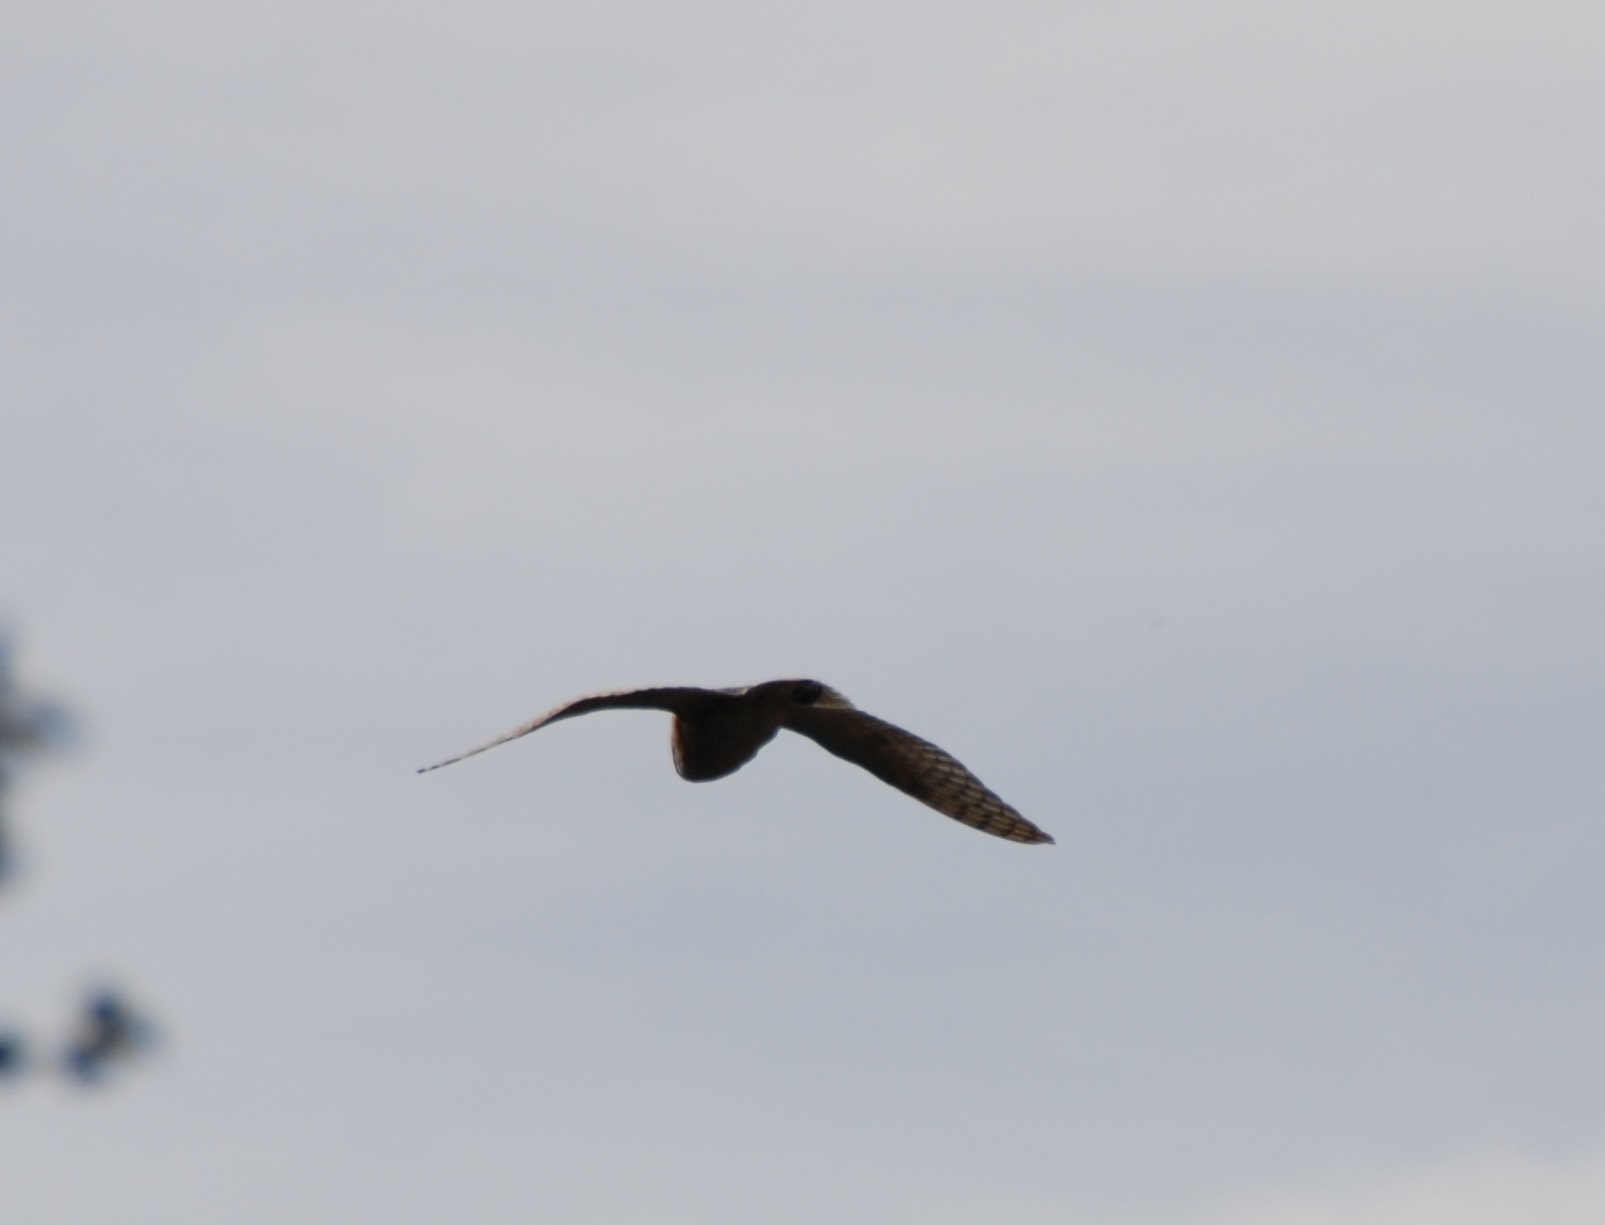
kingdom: Animalia
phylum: Chordata
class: Aves
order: Strigiformes
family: Tytonidae
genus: Tyto
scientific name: Tyto alba
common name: Barn owl
